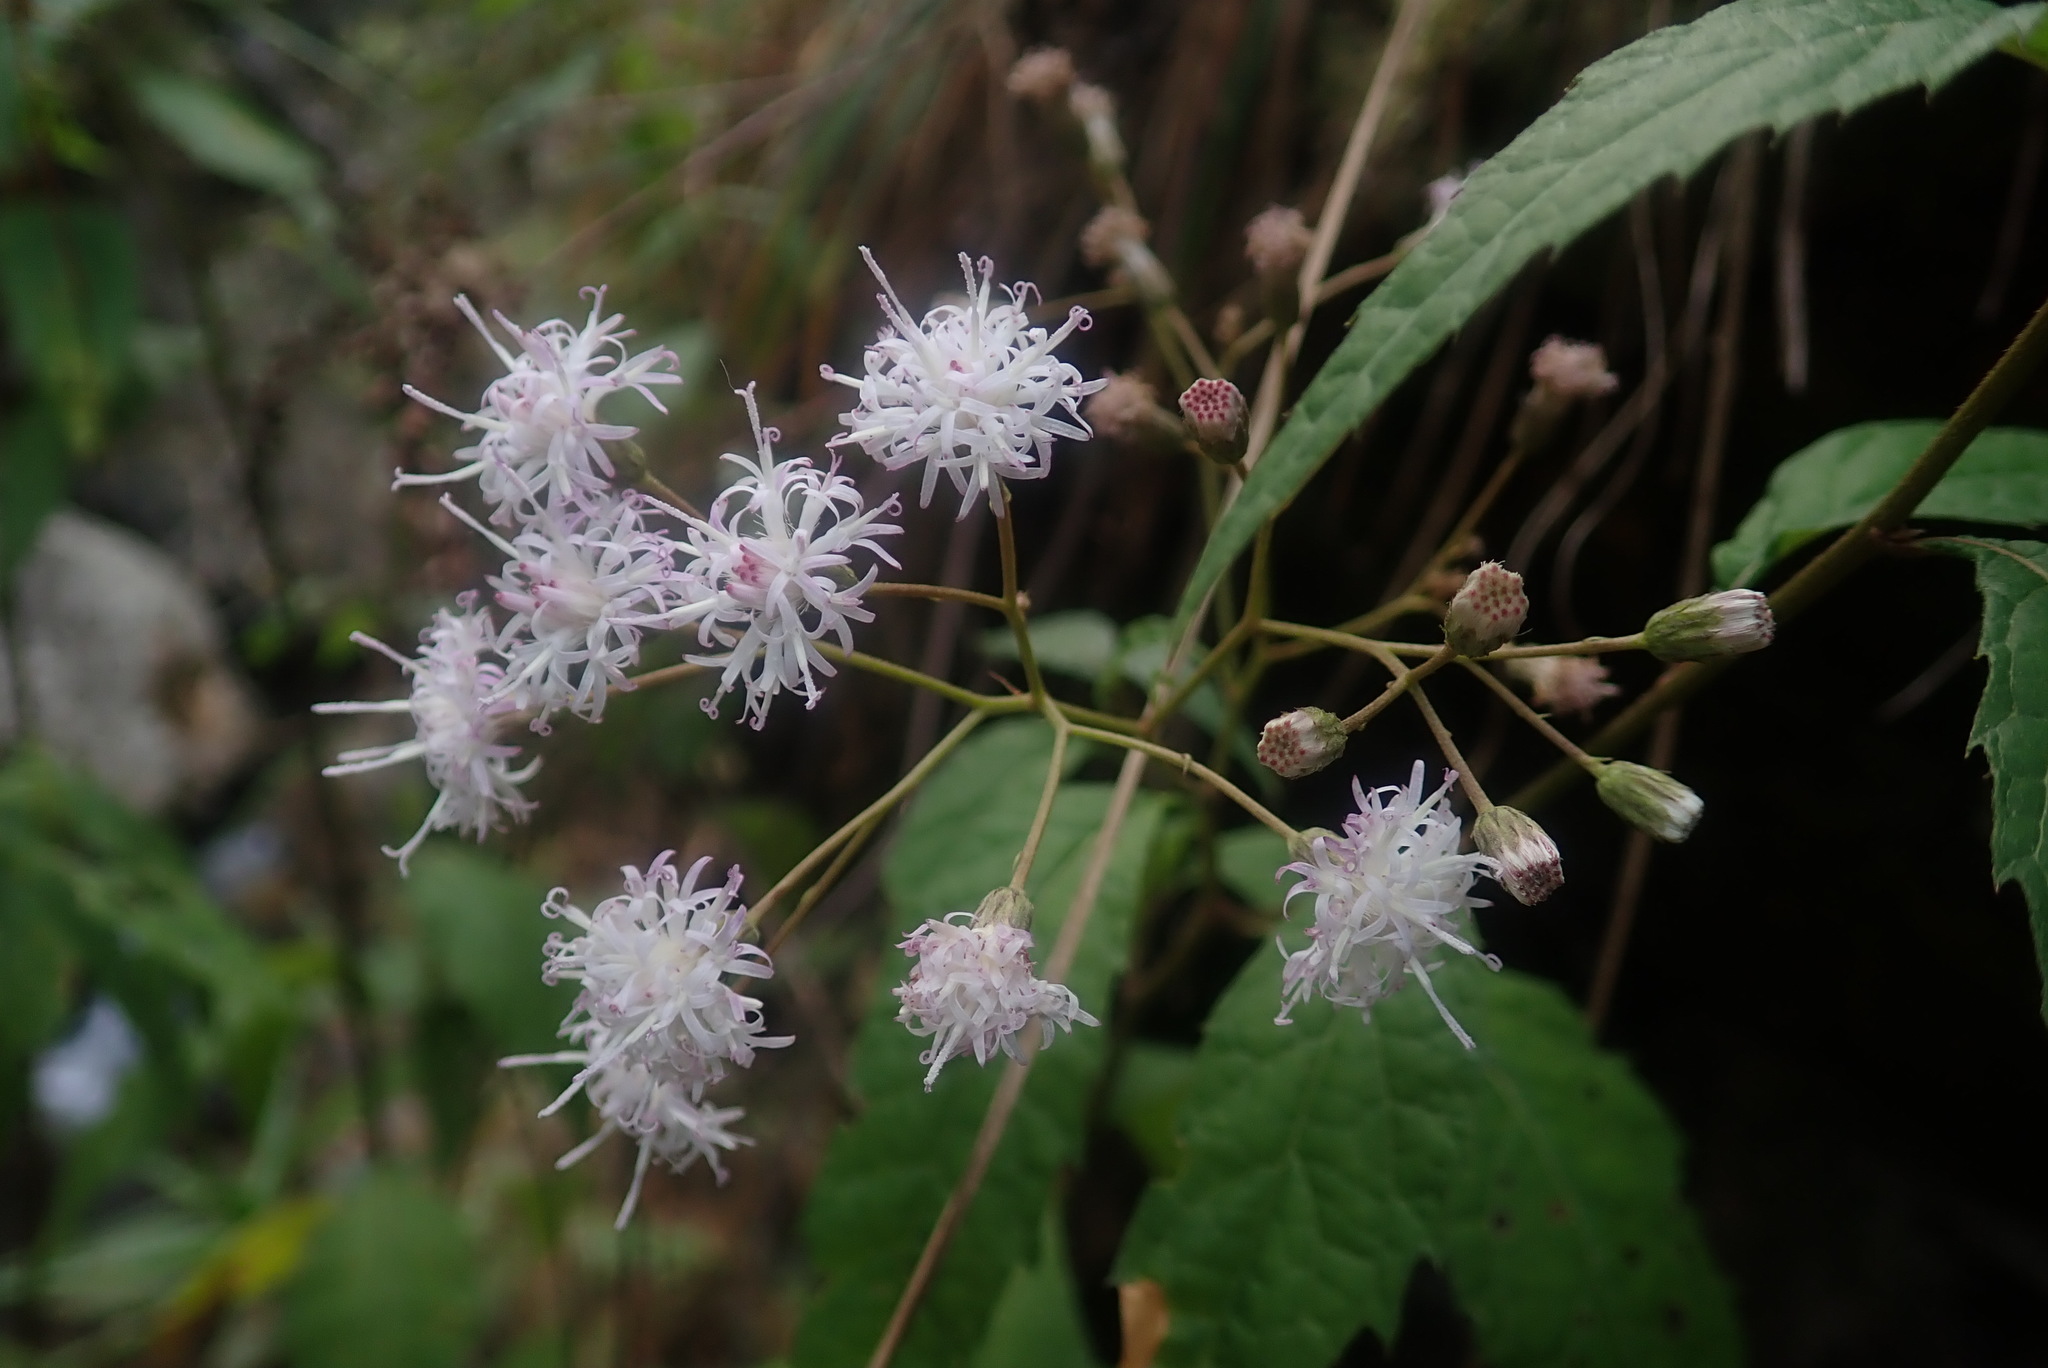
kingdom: Plantae
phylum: Tracheophyta
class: Magnoliopsida
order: Asterales
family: Asteraceae
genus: Cyanthillium
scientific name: Cyanthillium wollastonii
